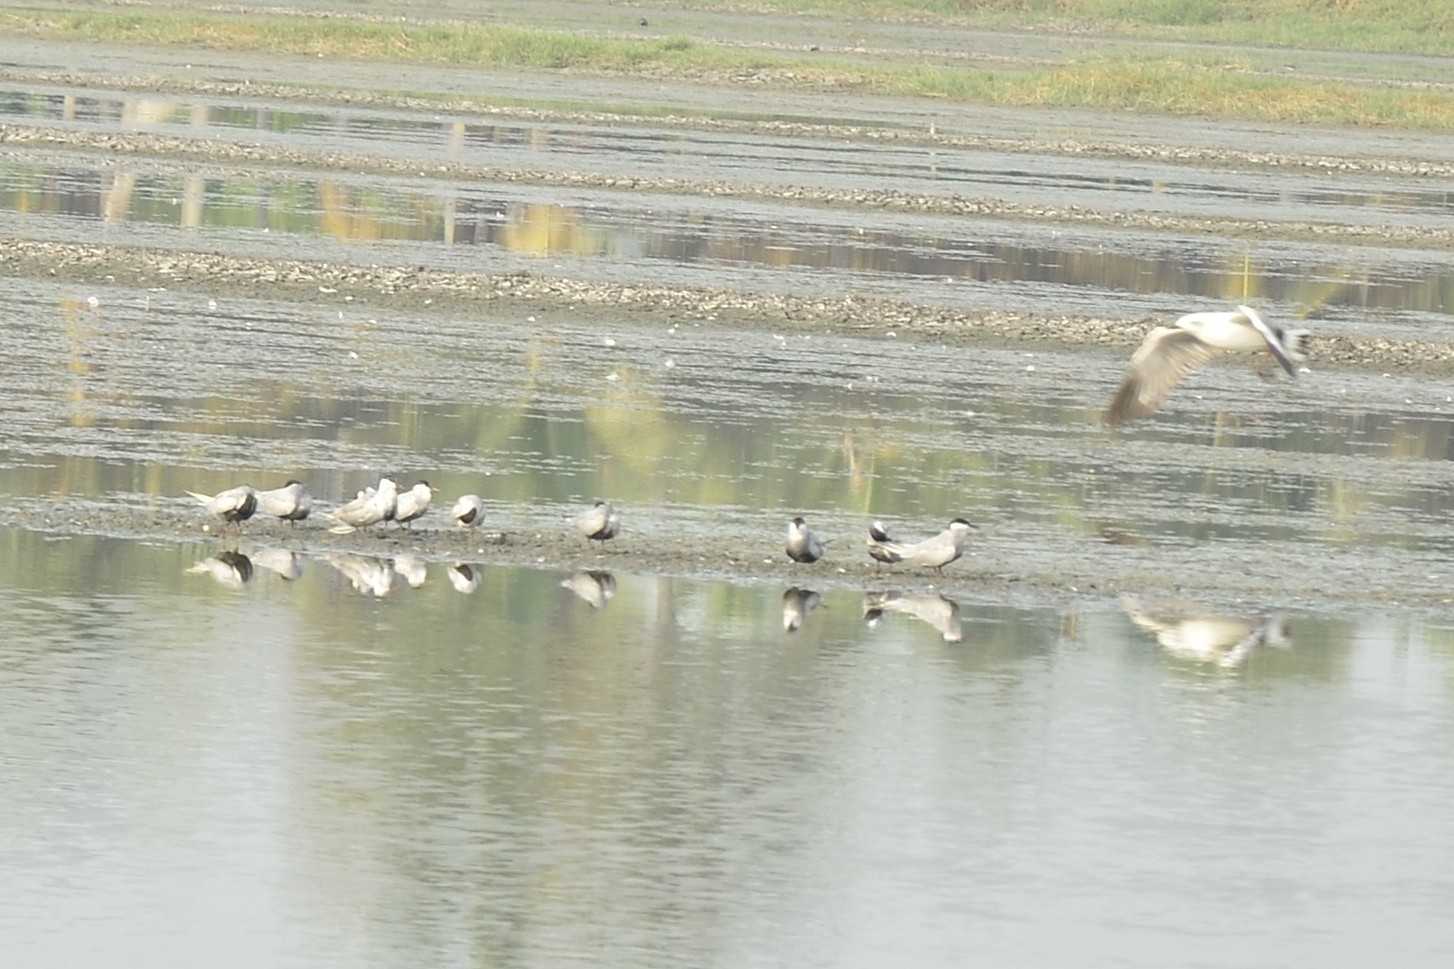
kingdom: Animalia
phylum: Chordata
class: Aves
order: Charadriiformes
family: Laridae
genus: Chlidonias
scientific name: Chlidonias hybrida
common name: Whiskered tern
